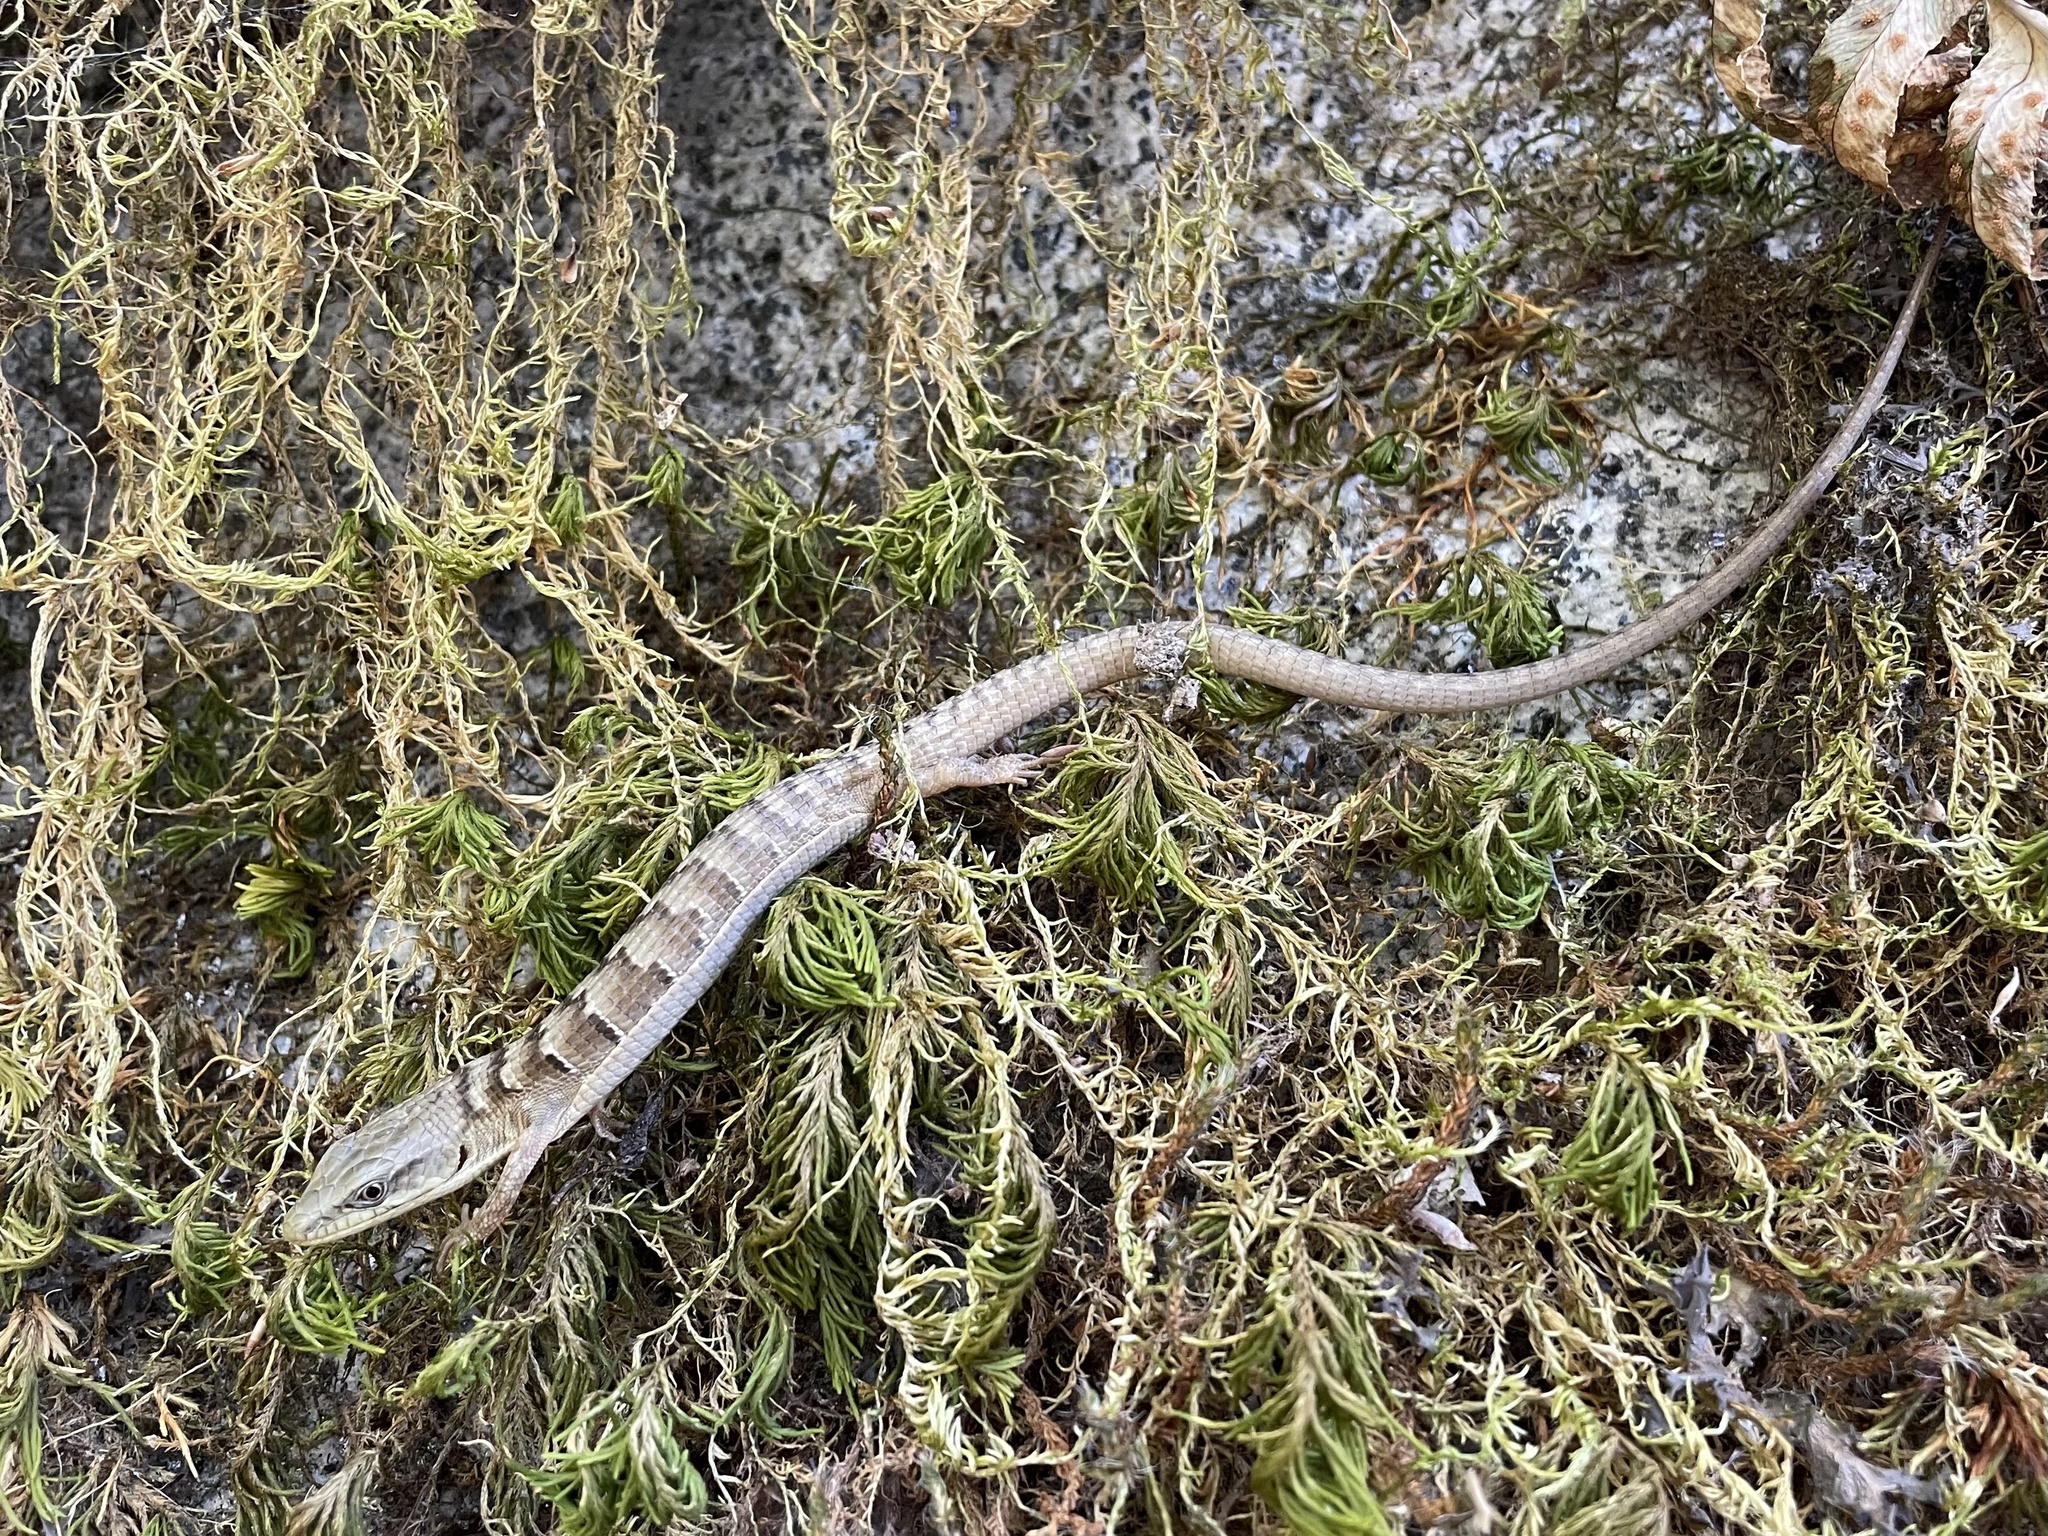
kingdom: Animalia
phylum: Chordata
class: Squamata
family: Anguidae
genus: Elgaria
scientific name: Elgaria multicarinata
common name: Southern alligator lizard
